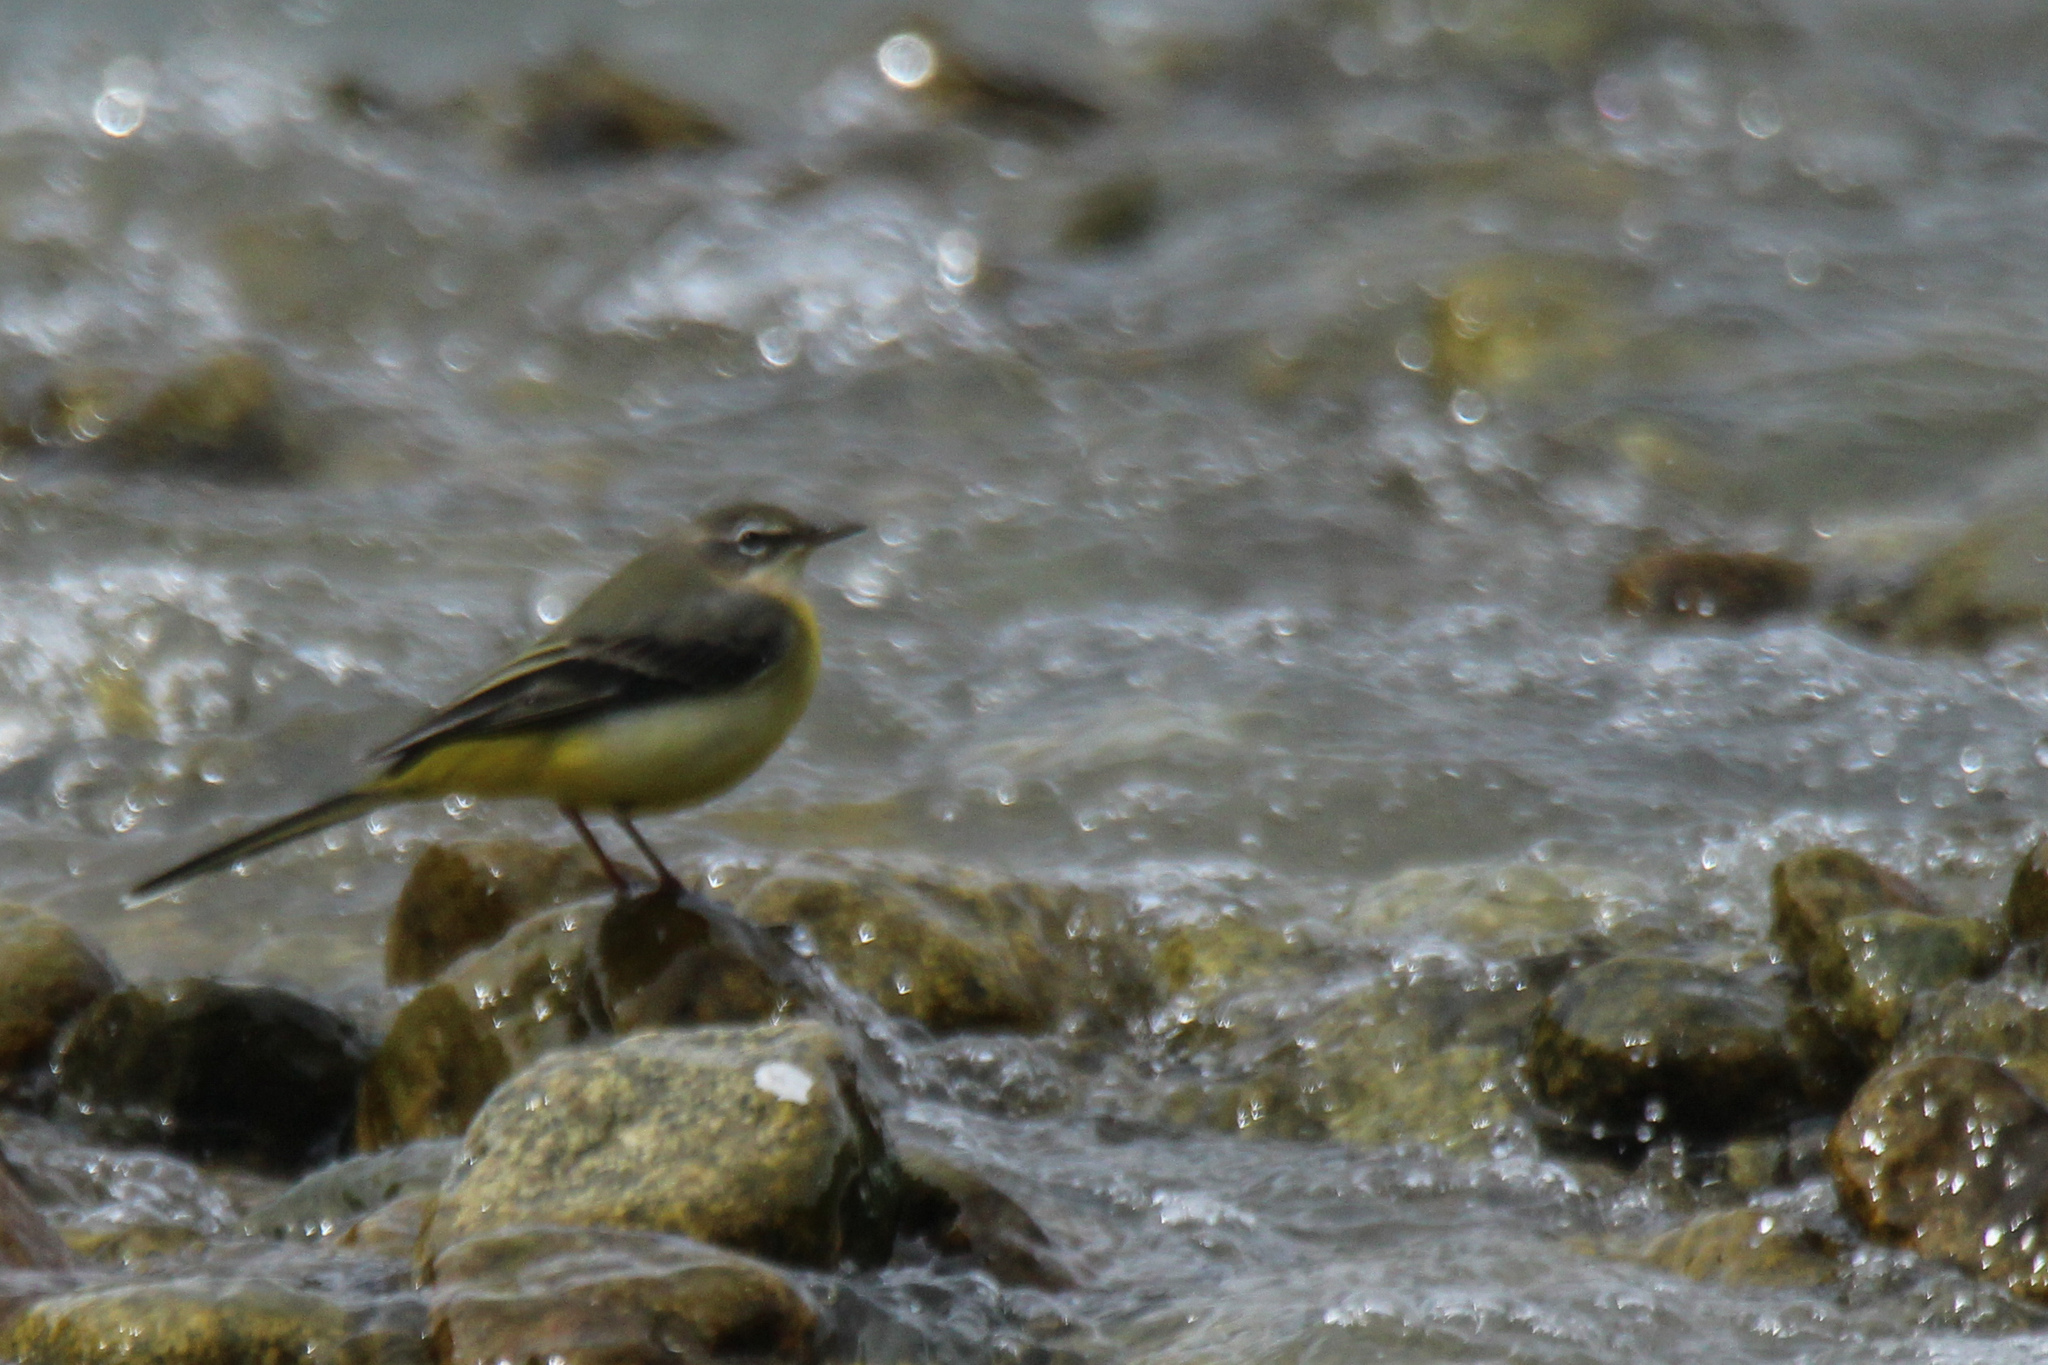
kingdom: Animalia
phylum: Chordata
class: Aves
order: Passeriformes
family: Motacillidae
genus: Motacilla
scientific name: Motacilla cinerea
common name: Grey wagtail
